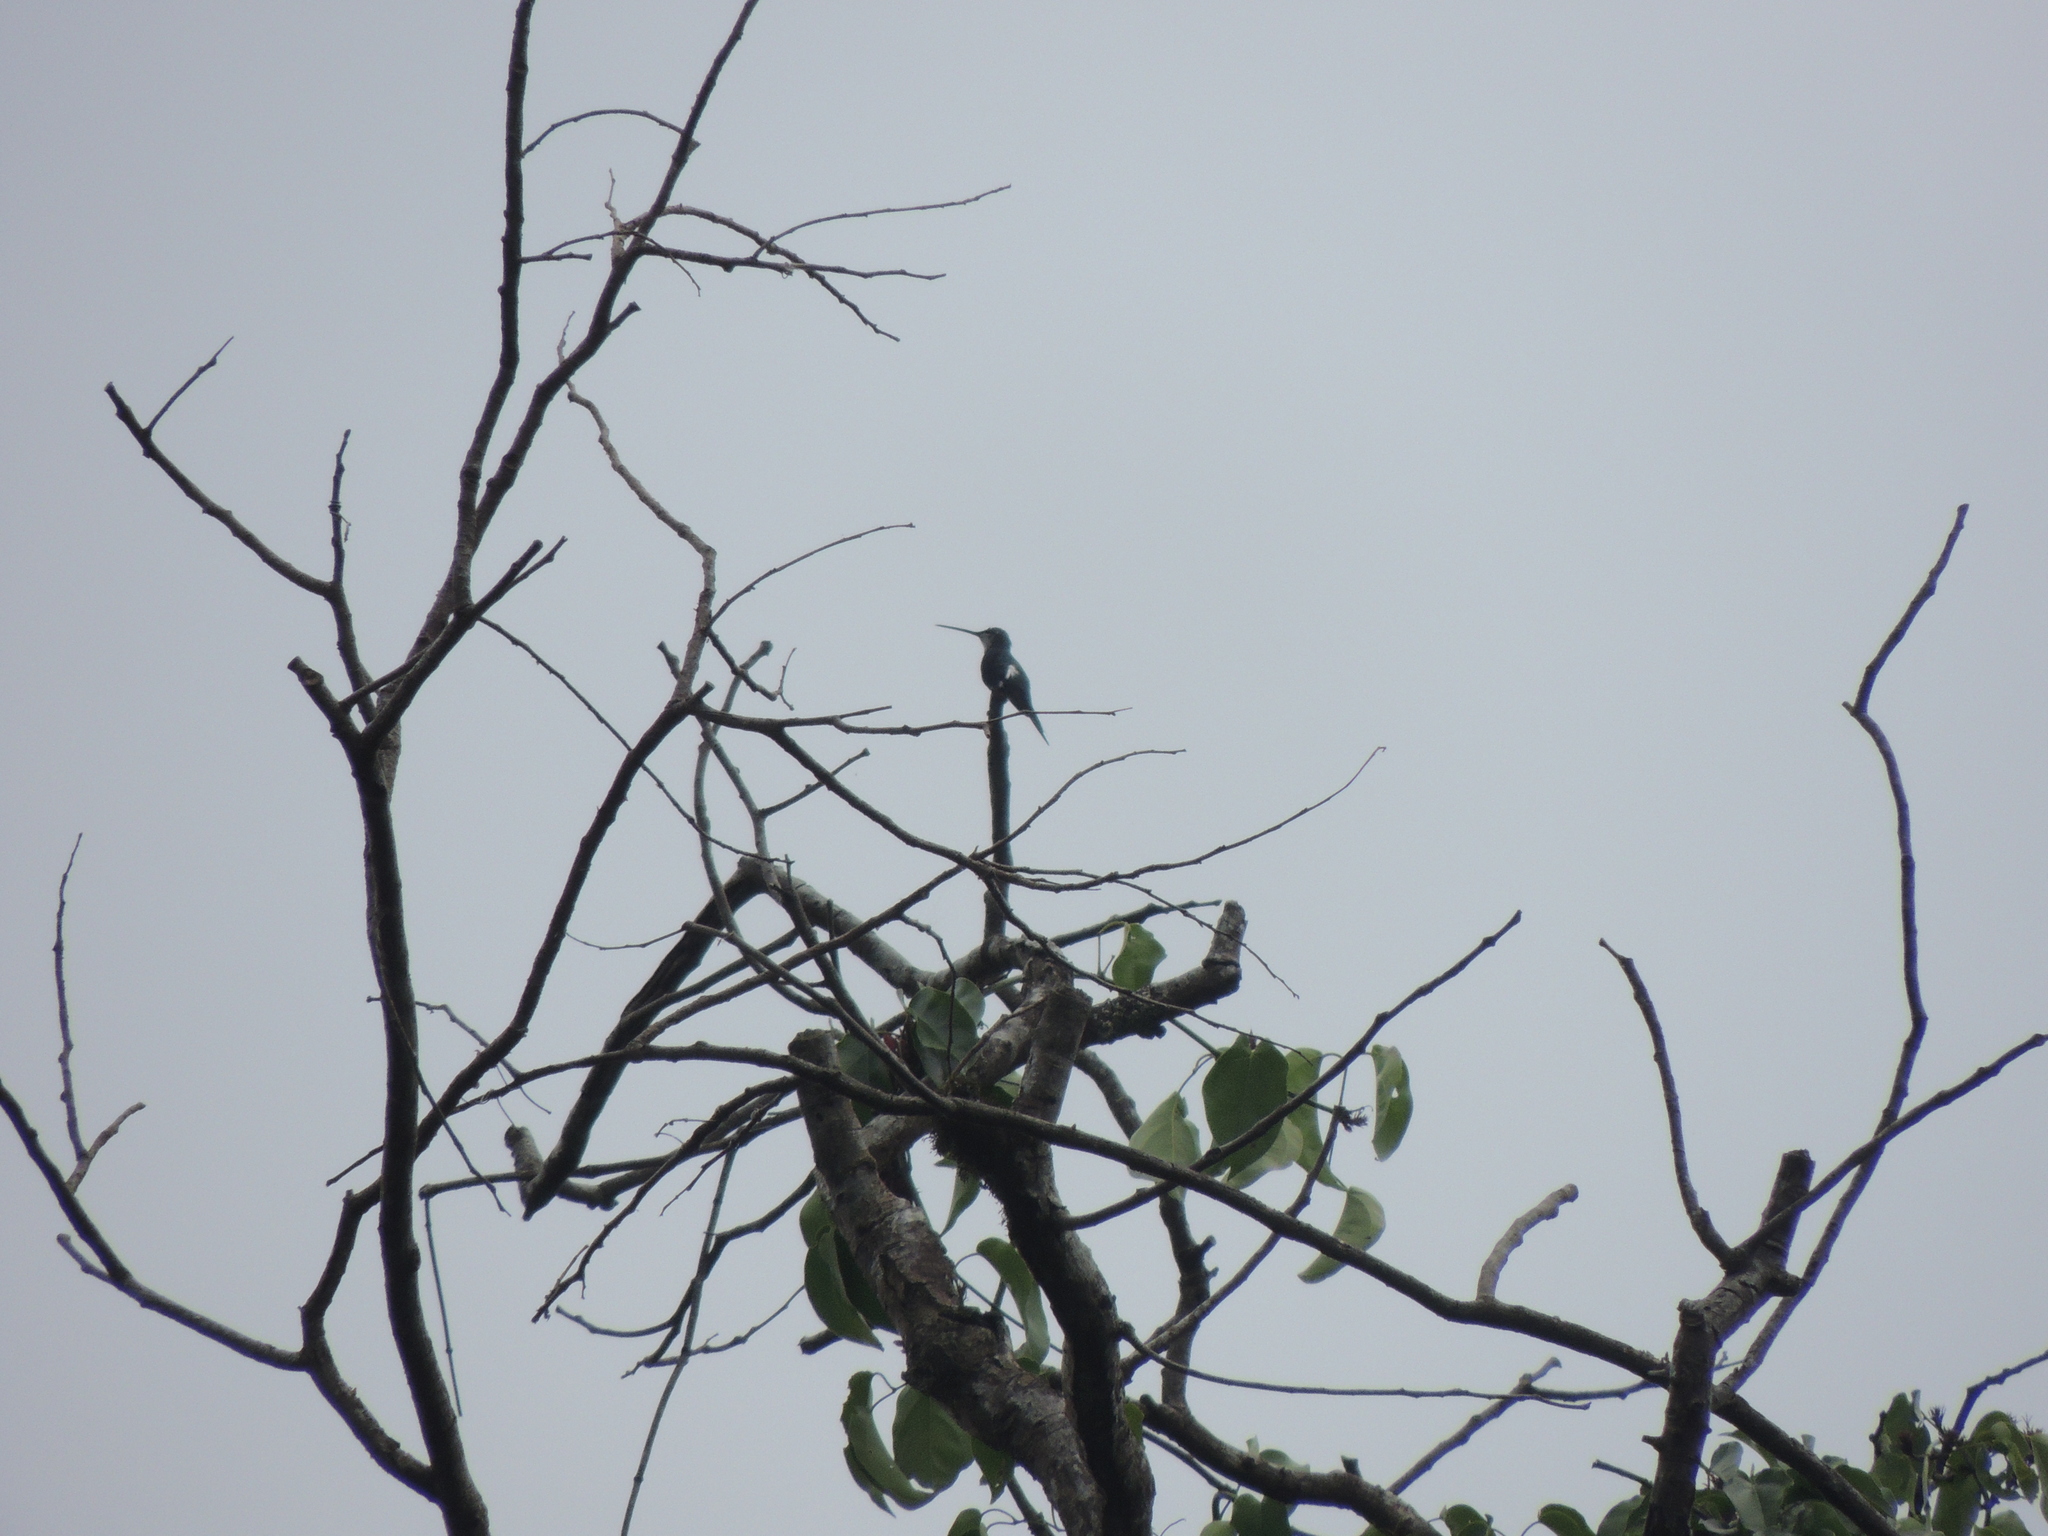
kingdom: Animalia
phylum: Chordata
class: Aves
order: Apodiformes
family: Trochilidae
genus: Heliomaster
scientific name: Heliomaster furcifer
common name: Blue-tufted starthroat
